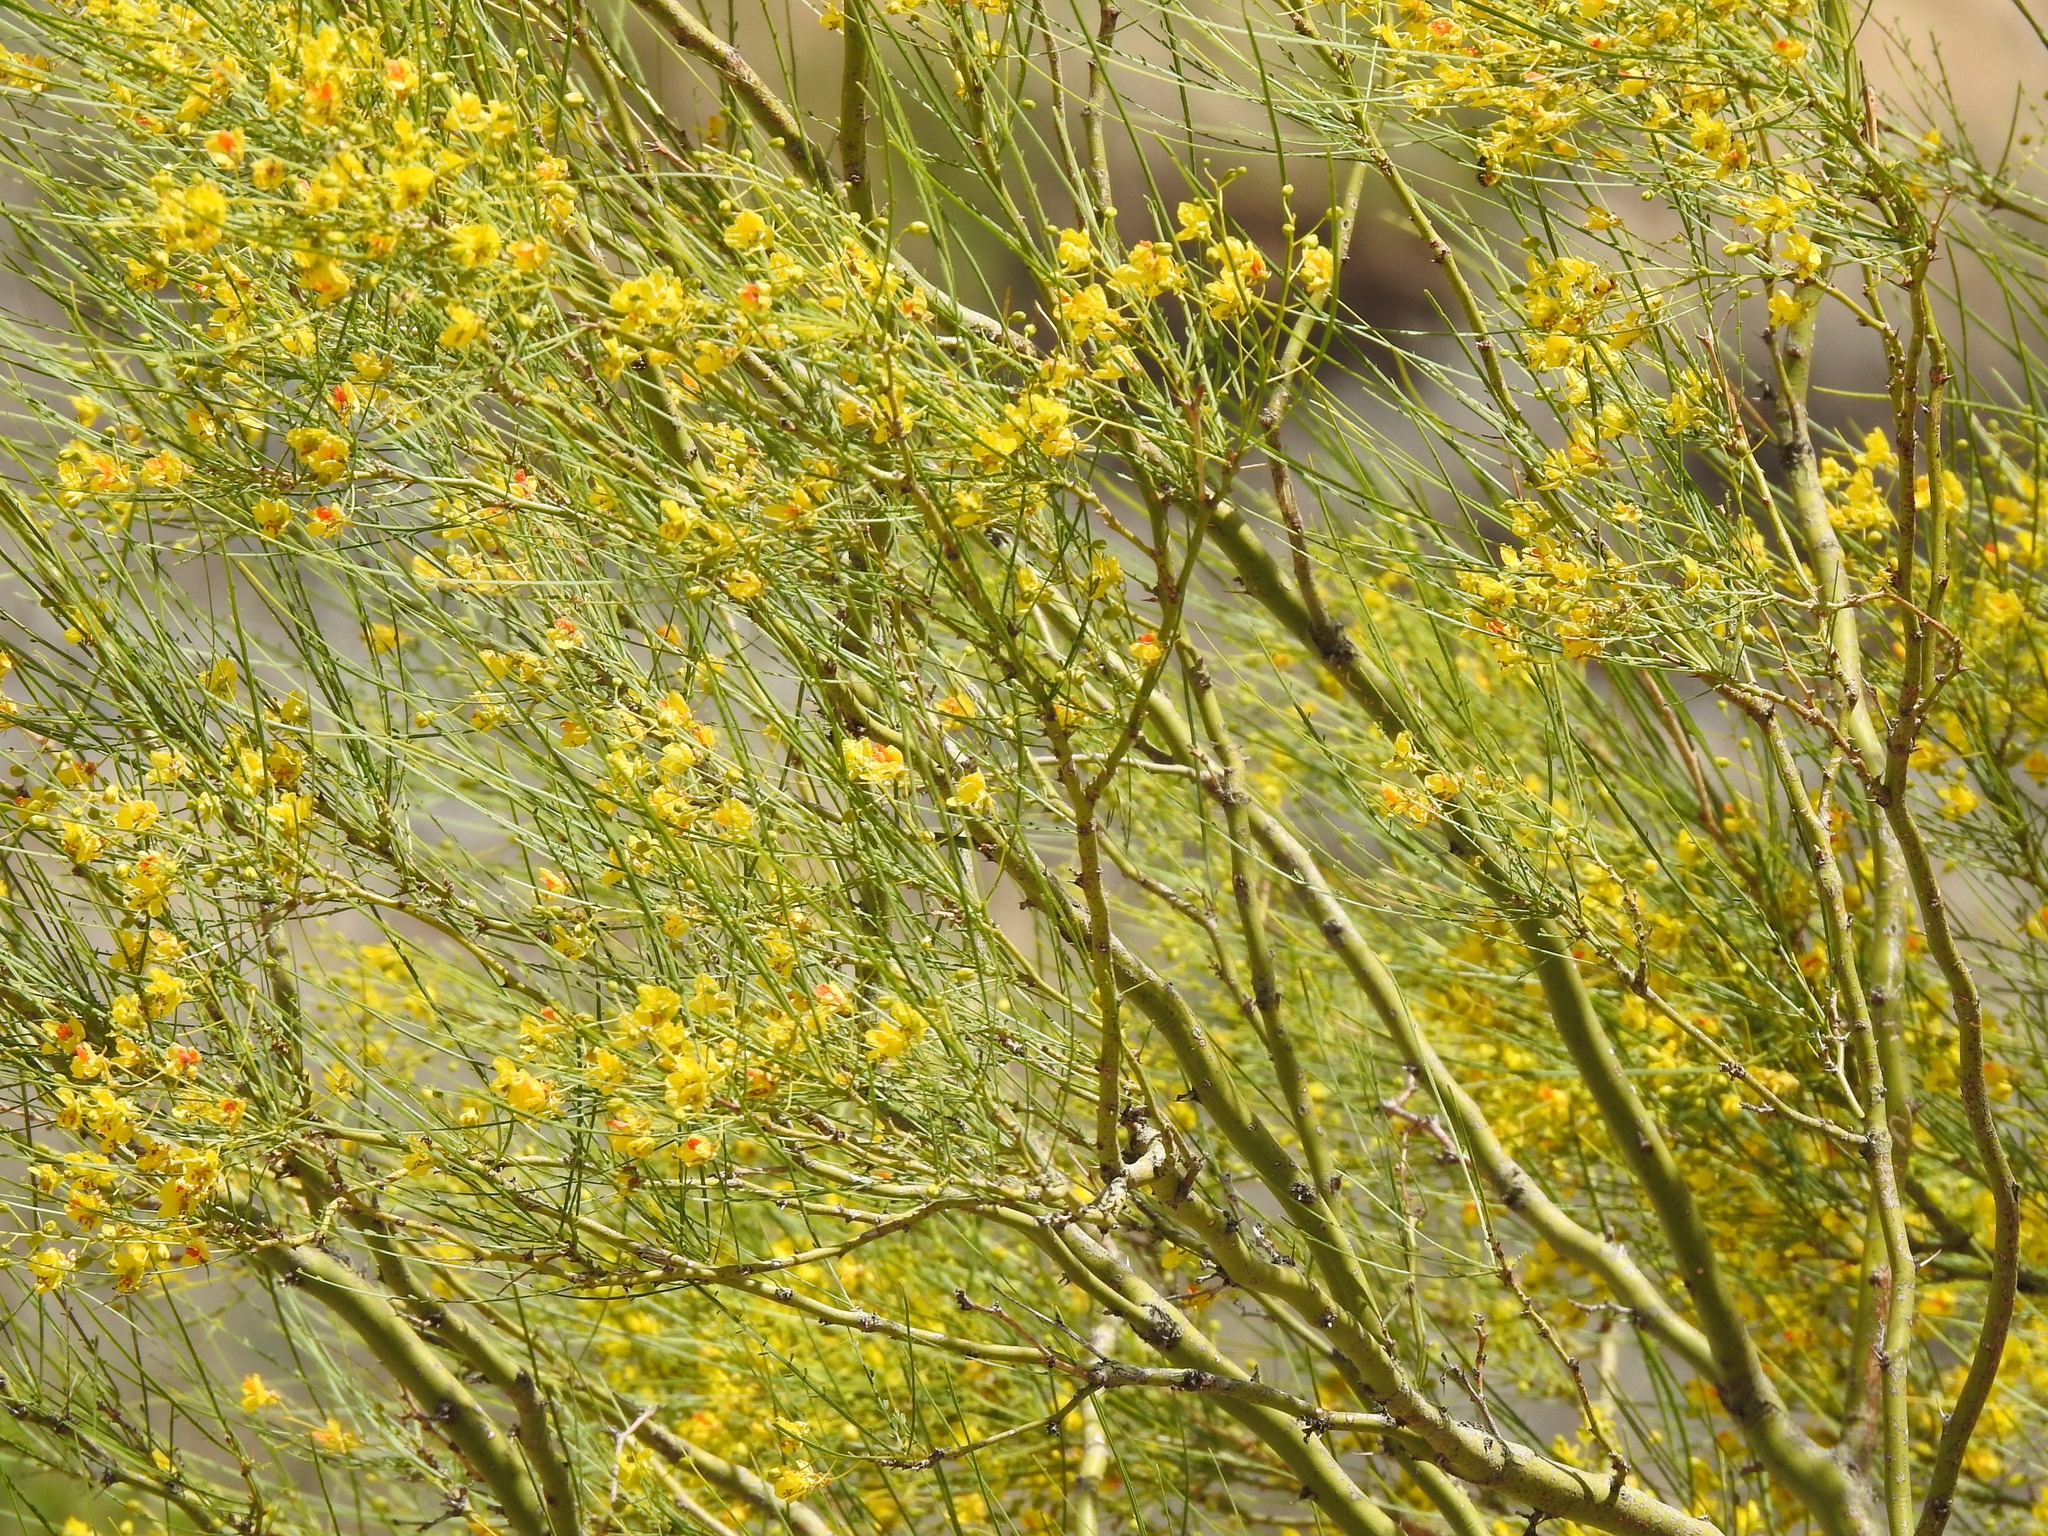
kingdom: Plantae
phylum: Tracheophyta
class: Magnoliopsida
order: Fabales
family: Fabaceae
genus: Parkinsonia
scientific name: Parkinsonia aculeata
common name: Jerusalem thorn
